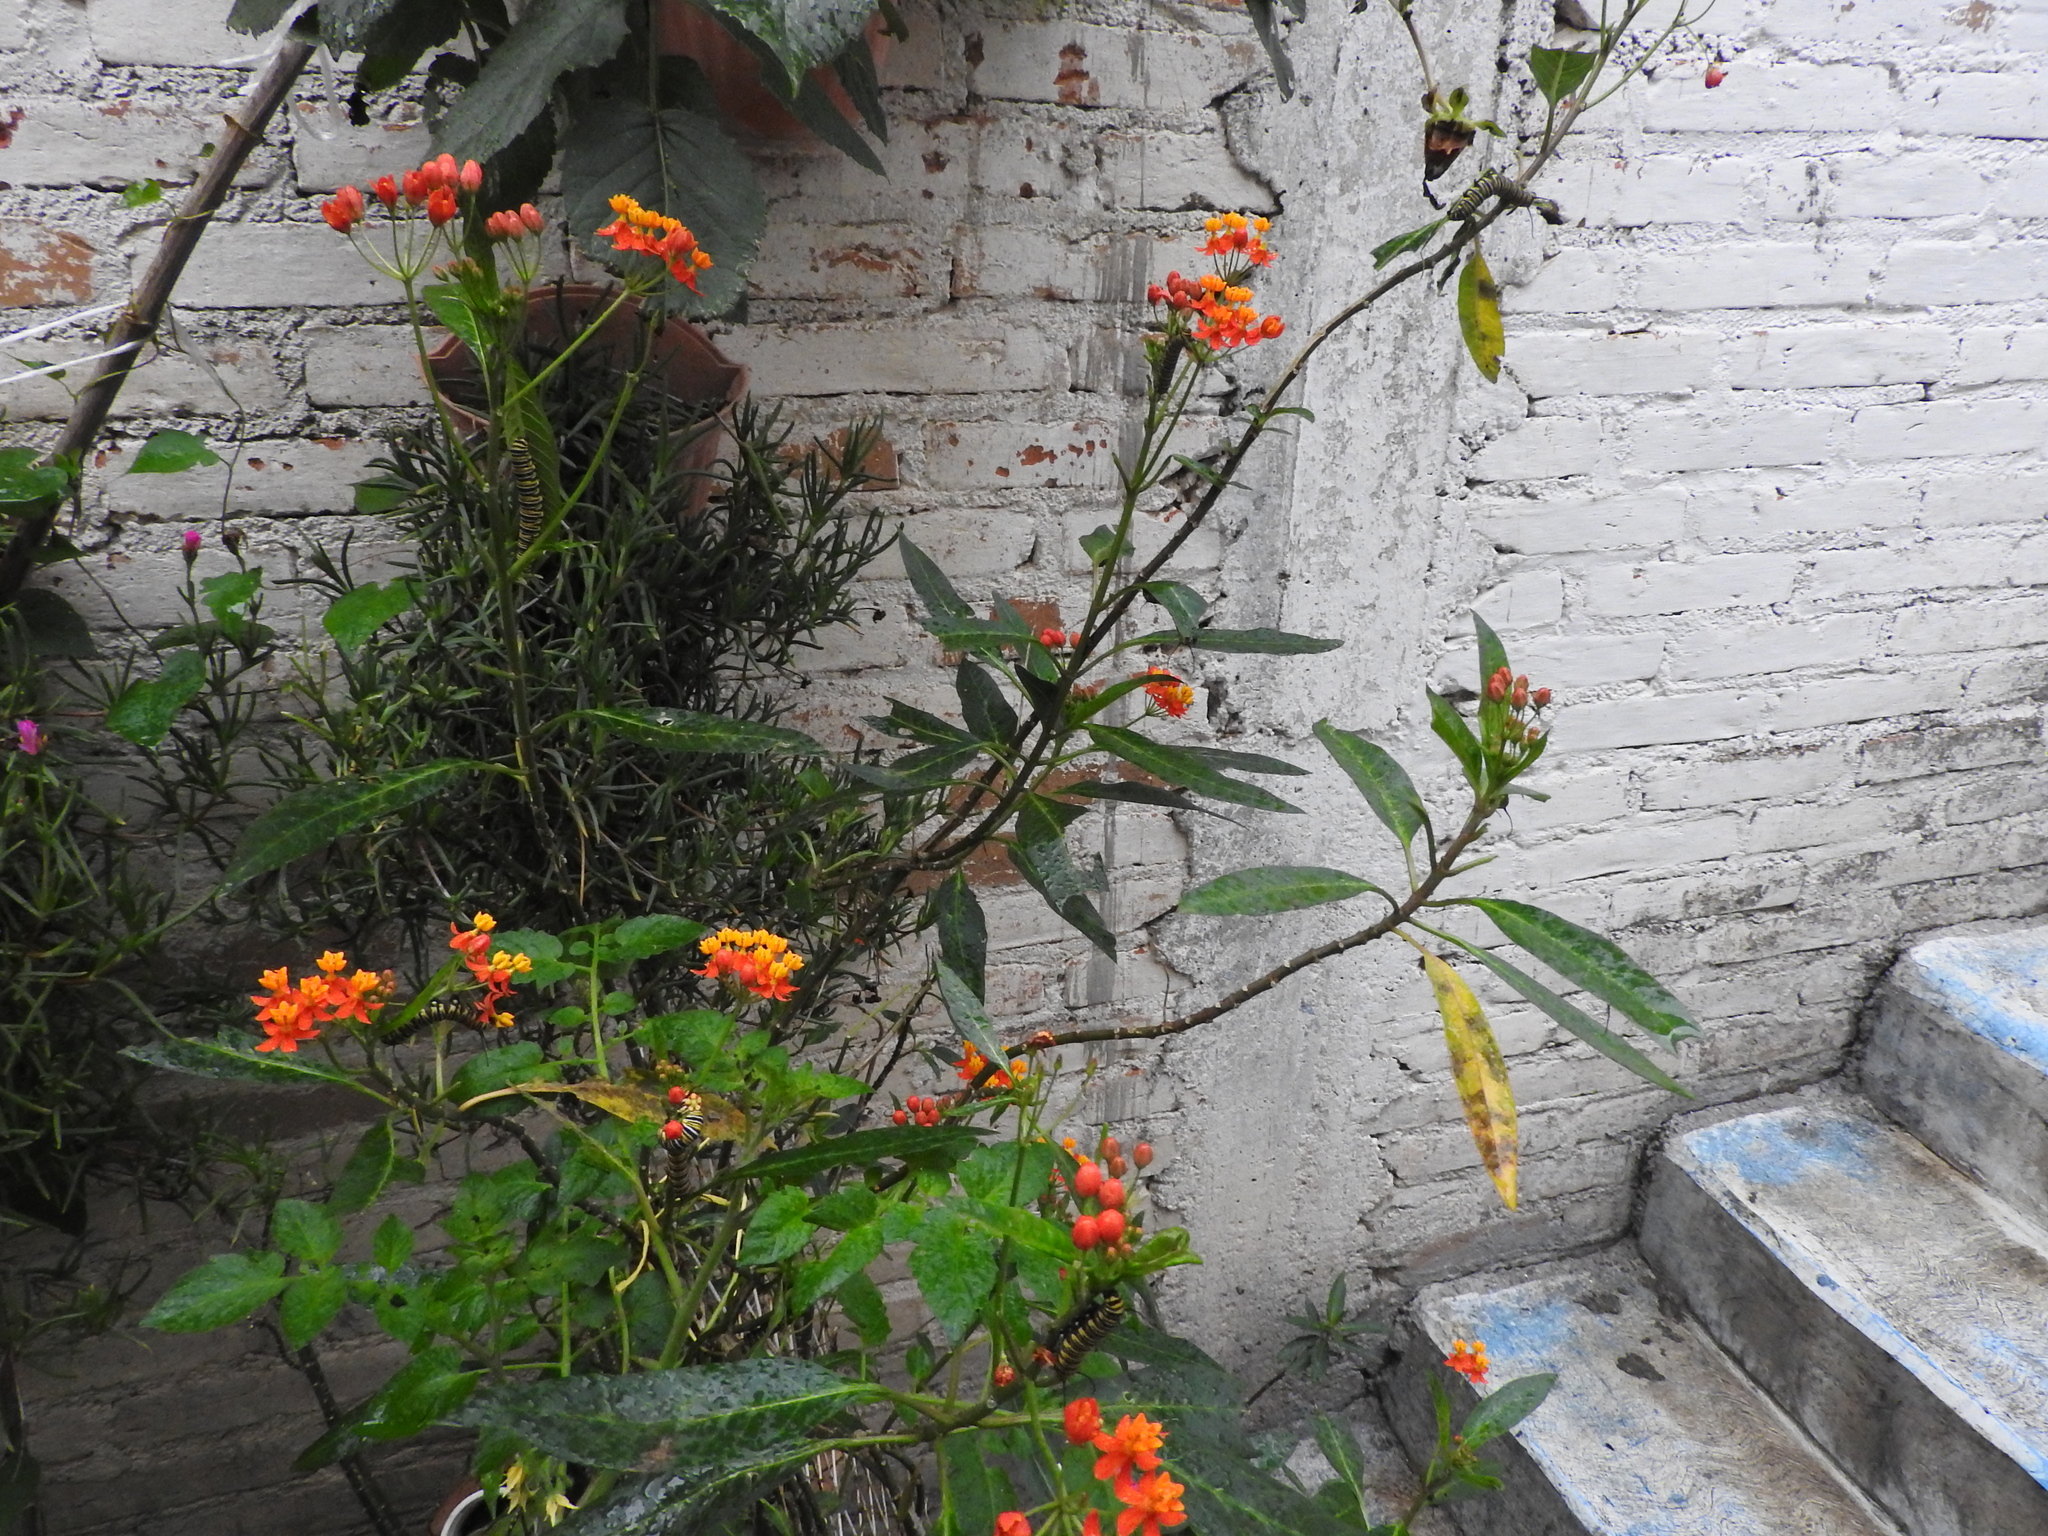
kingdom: Animalia
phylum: Arthropoda
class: Insecta
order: Lepidoptera
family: Nymphalidae
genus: Danaus
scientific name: Danaus plexippus
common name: Monarch
